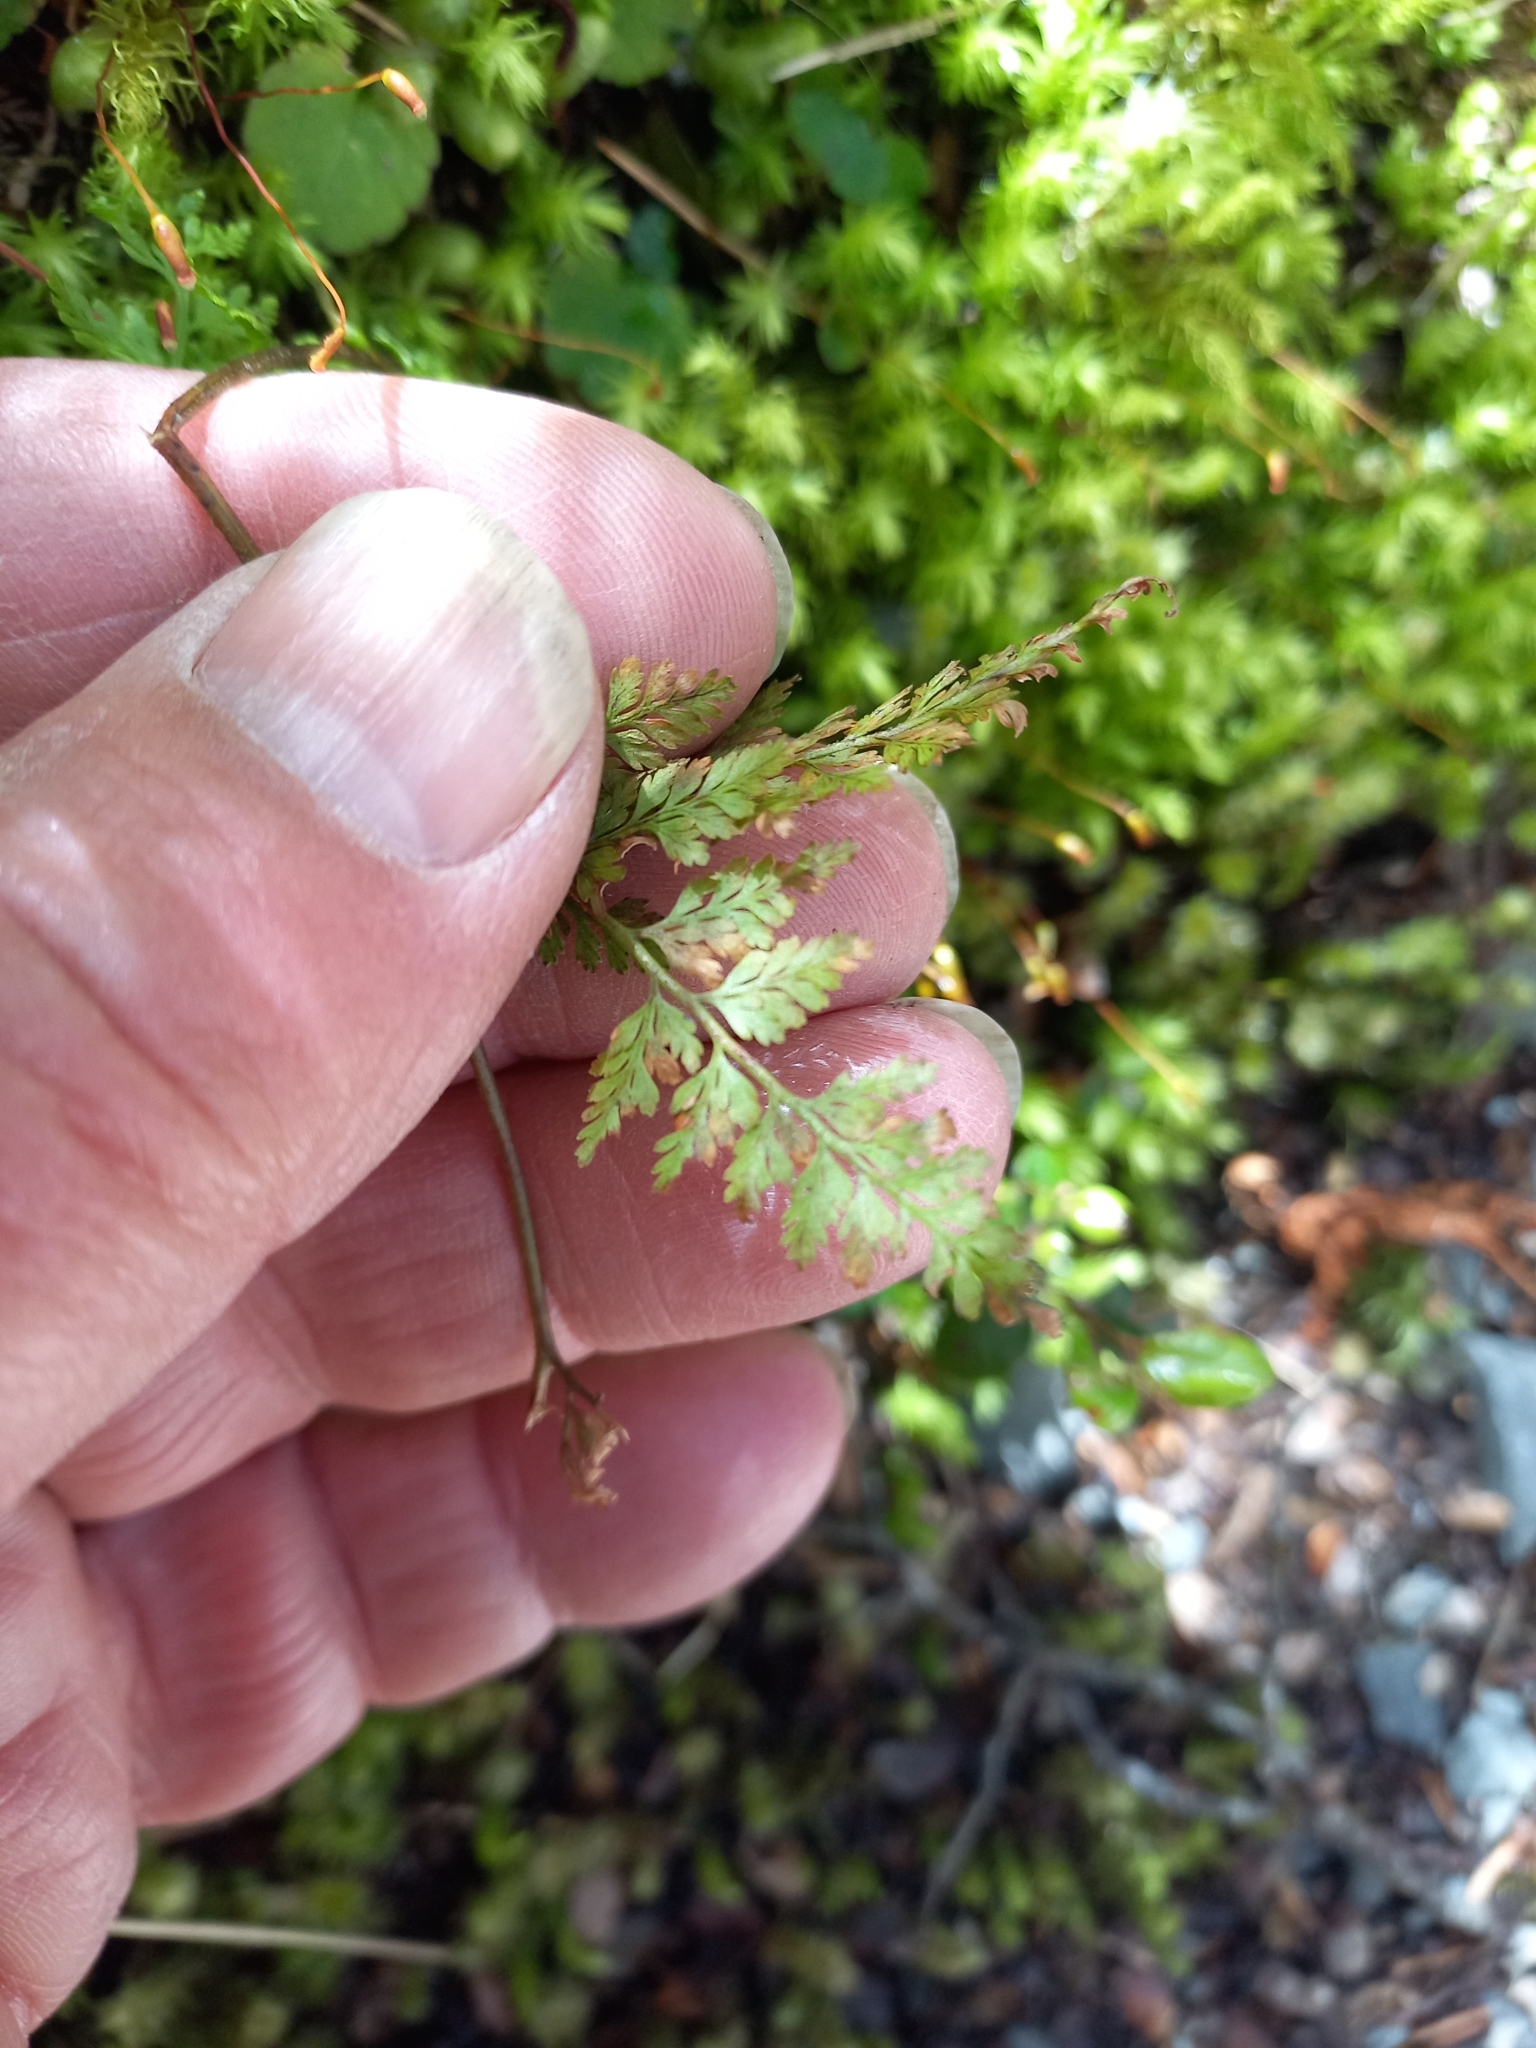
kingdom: Plantae
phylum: Tracheophyta
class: Polypodiopsida
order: Ophioglossales
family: Ophioglossaceae
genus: Sceptridium
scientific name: Sceptridium biforme
